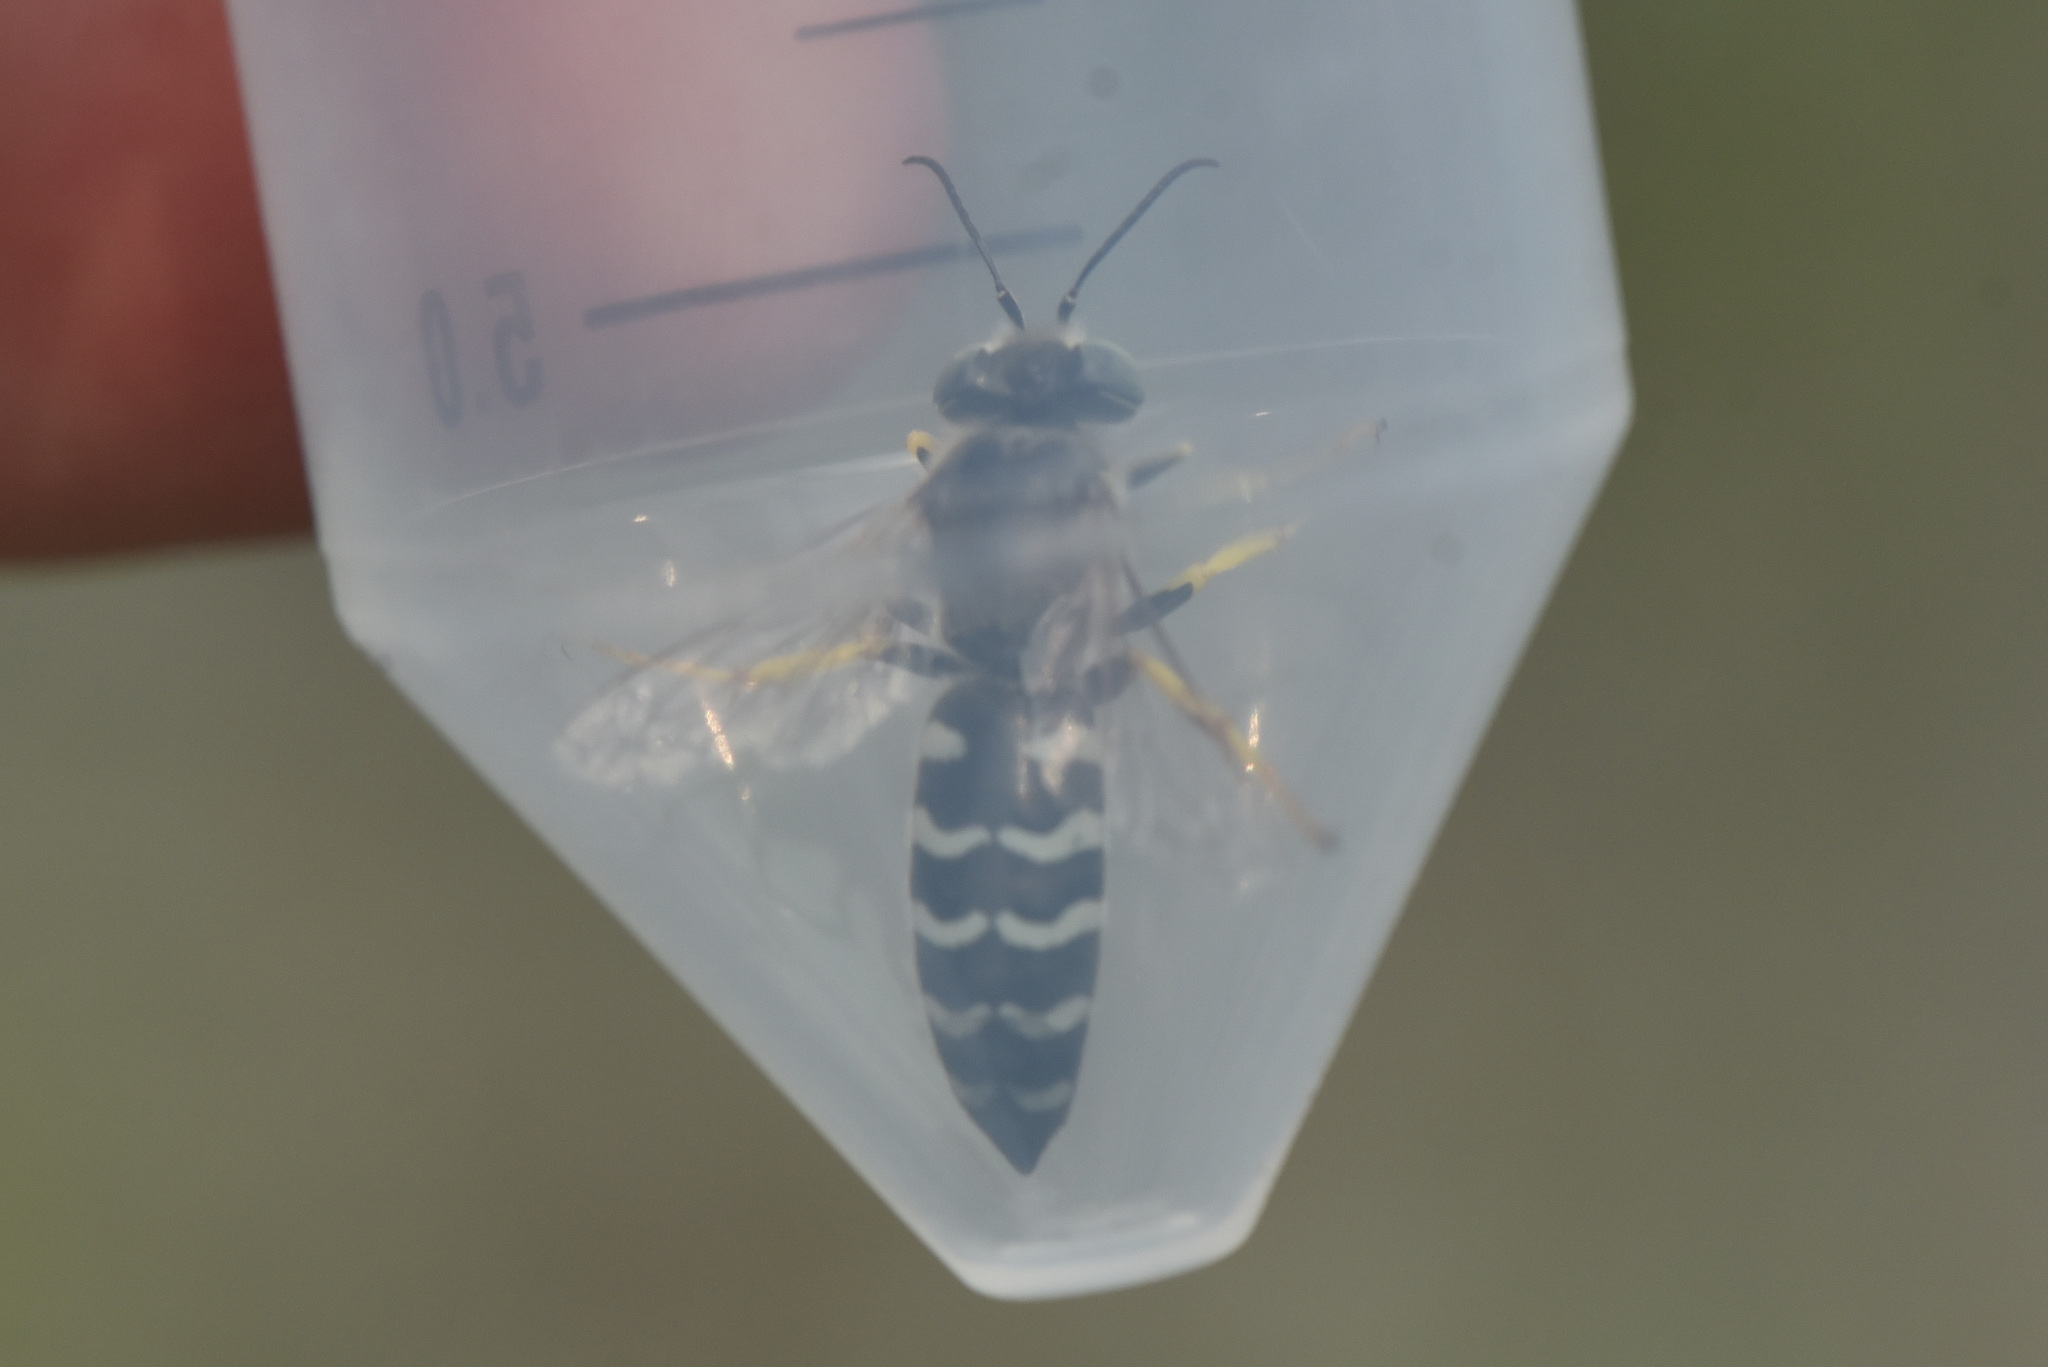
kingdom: Animalia
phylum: Arthropoda
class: Insecta
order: Hymenoptera
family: Crabronidae
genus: Bembix
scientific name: Bembix americana
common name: American sand wasp
